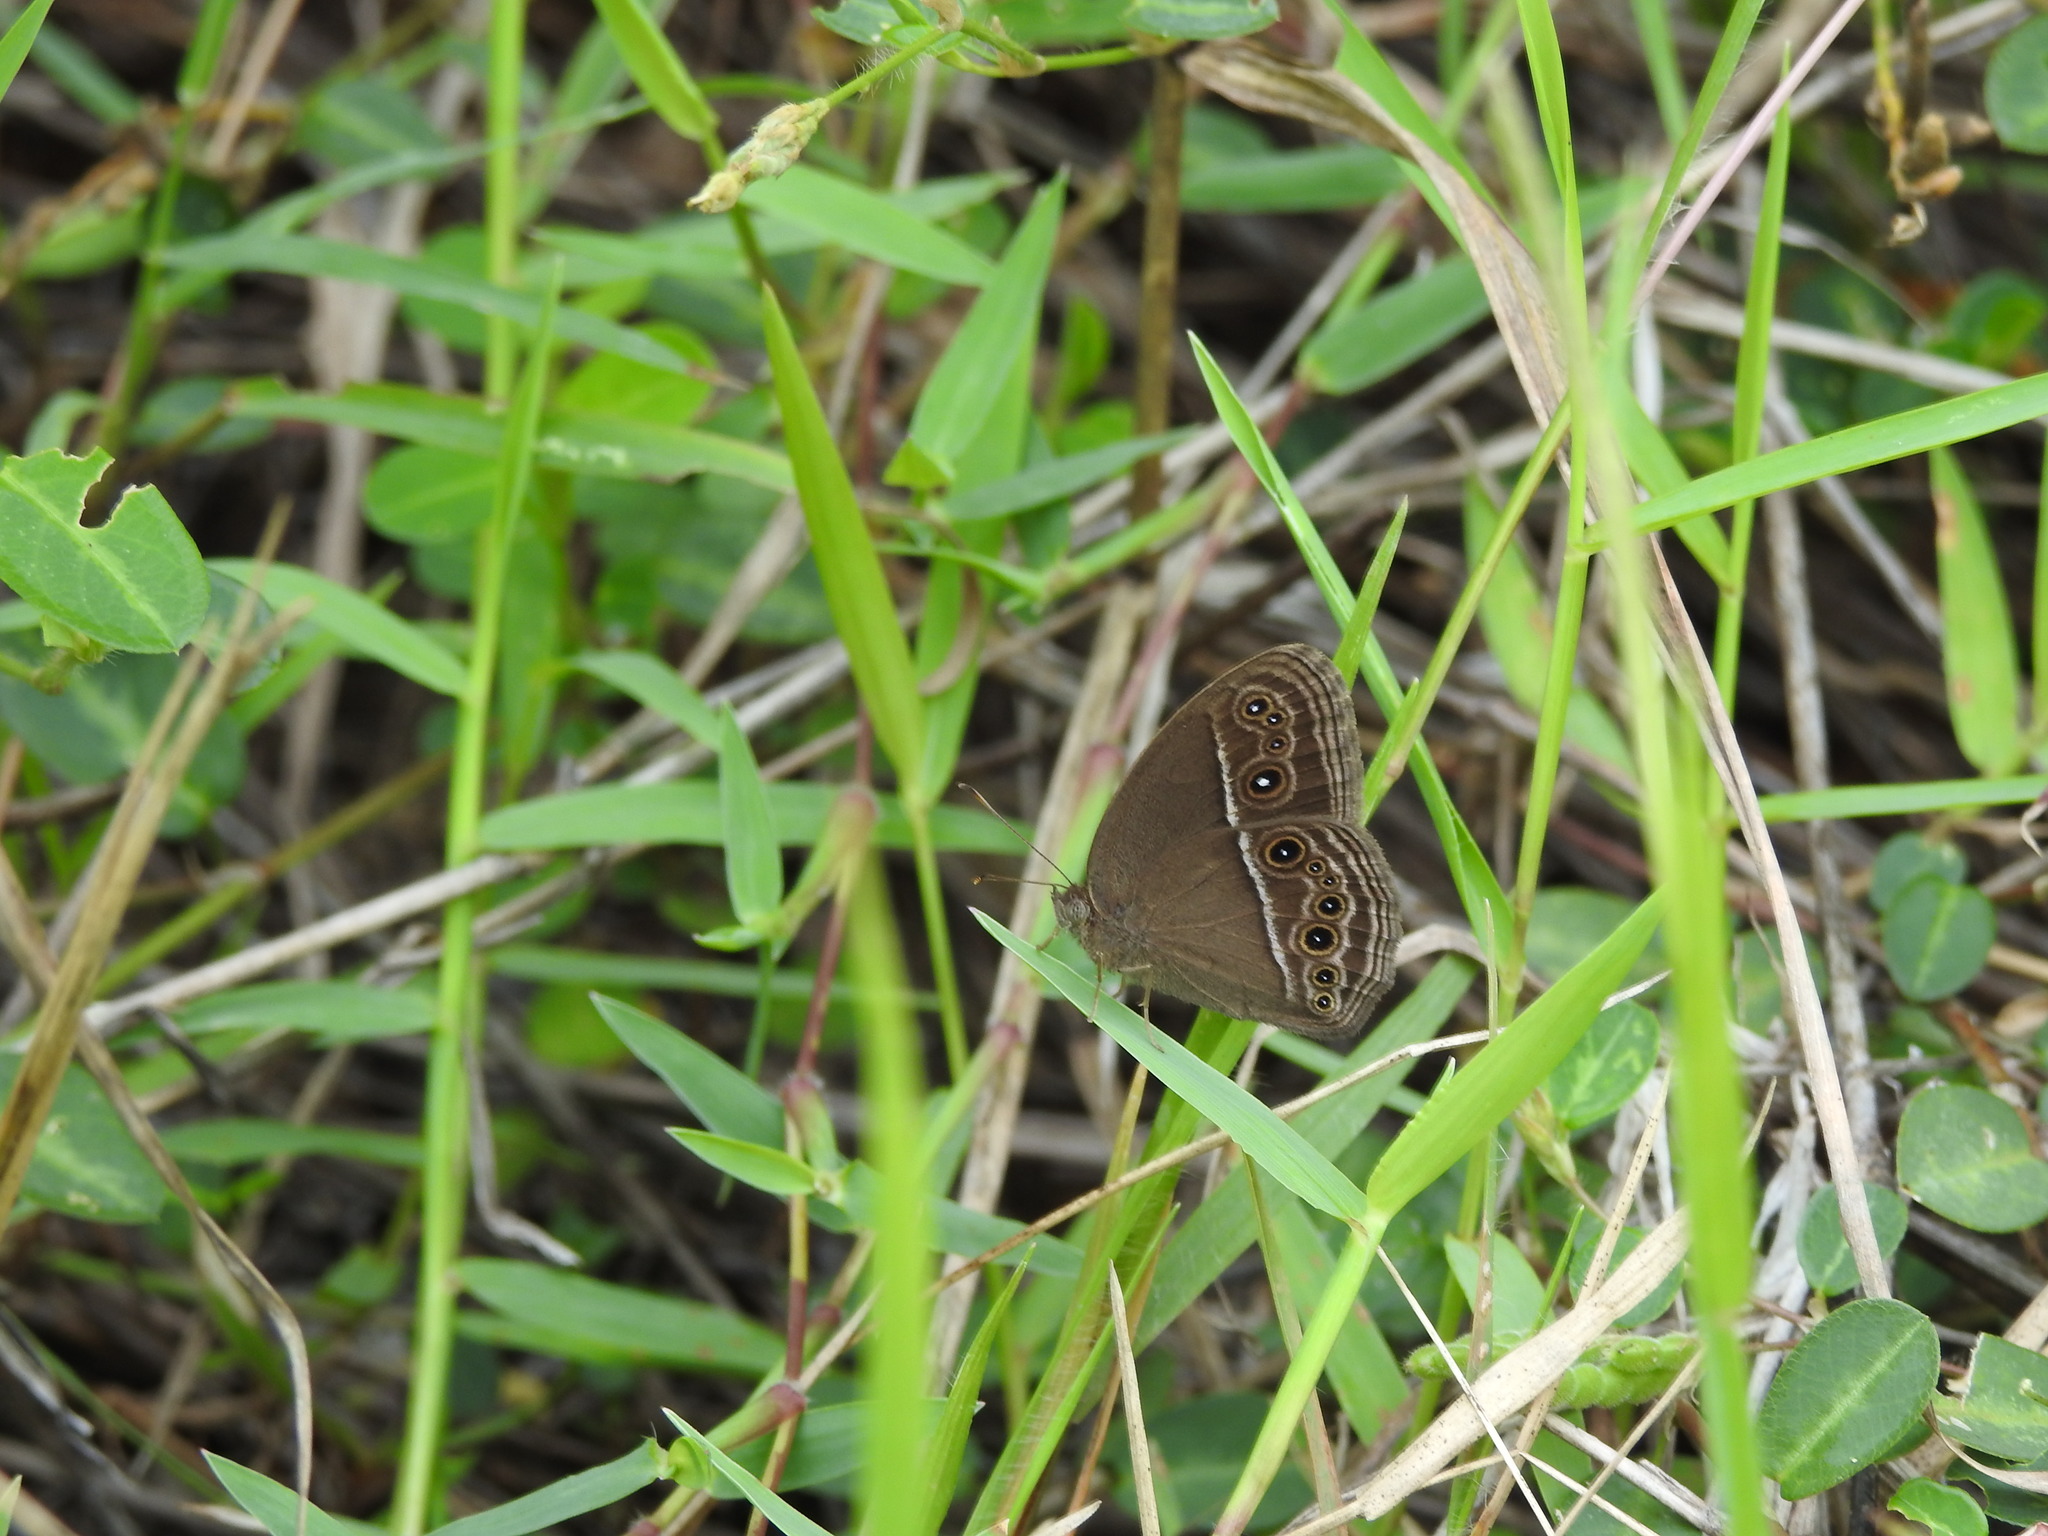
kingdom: Animalia
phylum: Arthropoda
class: Insecta
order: Lepidoptera
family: Nymphalidae
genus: Mycalesis
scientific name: Mycalesis perseus
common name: Dingy bushbrown
